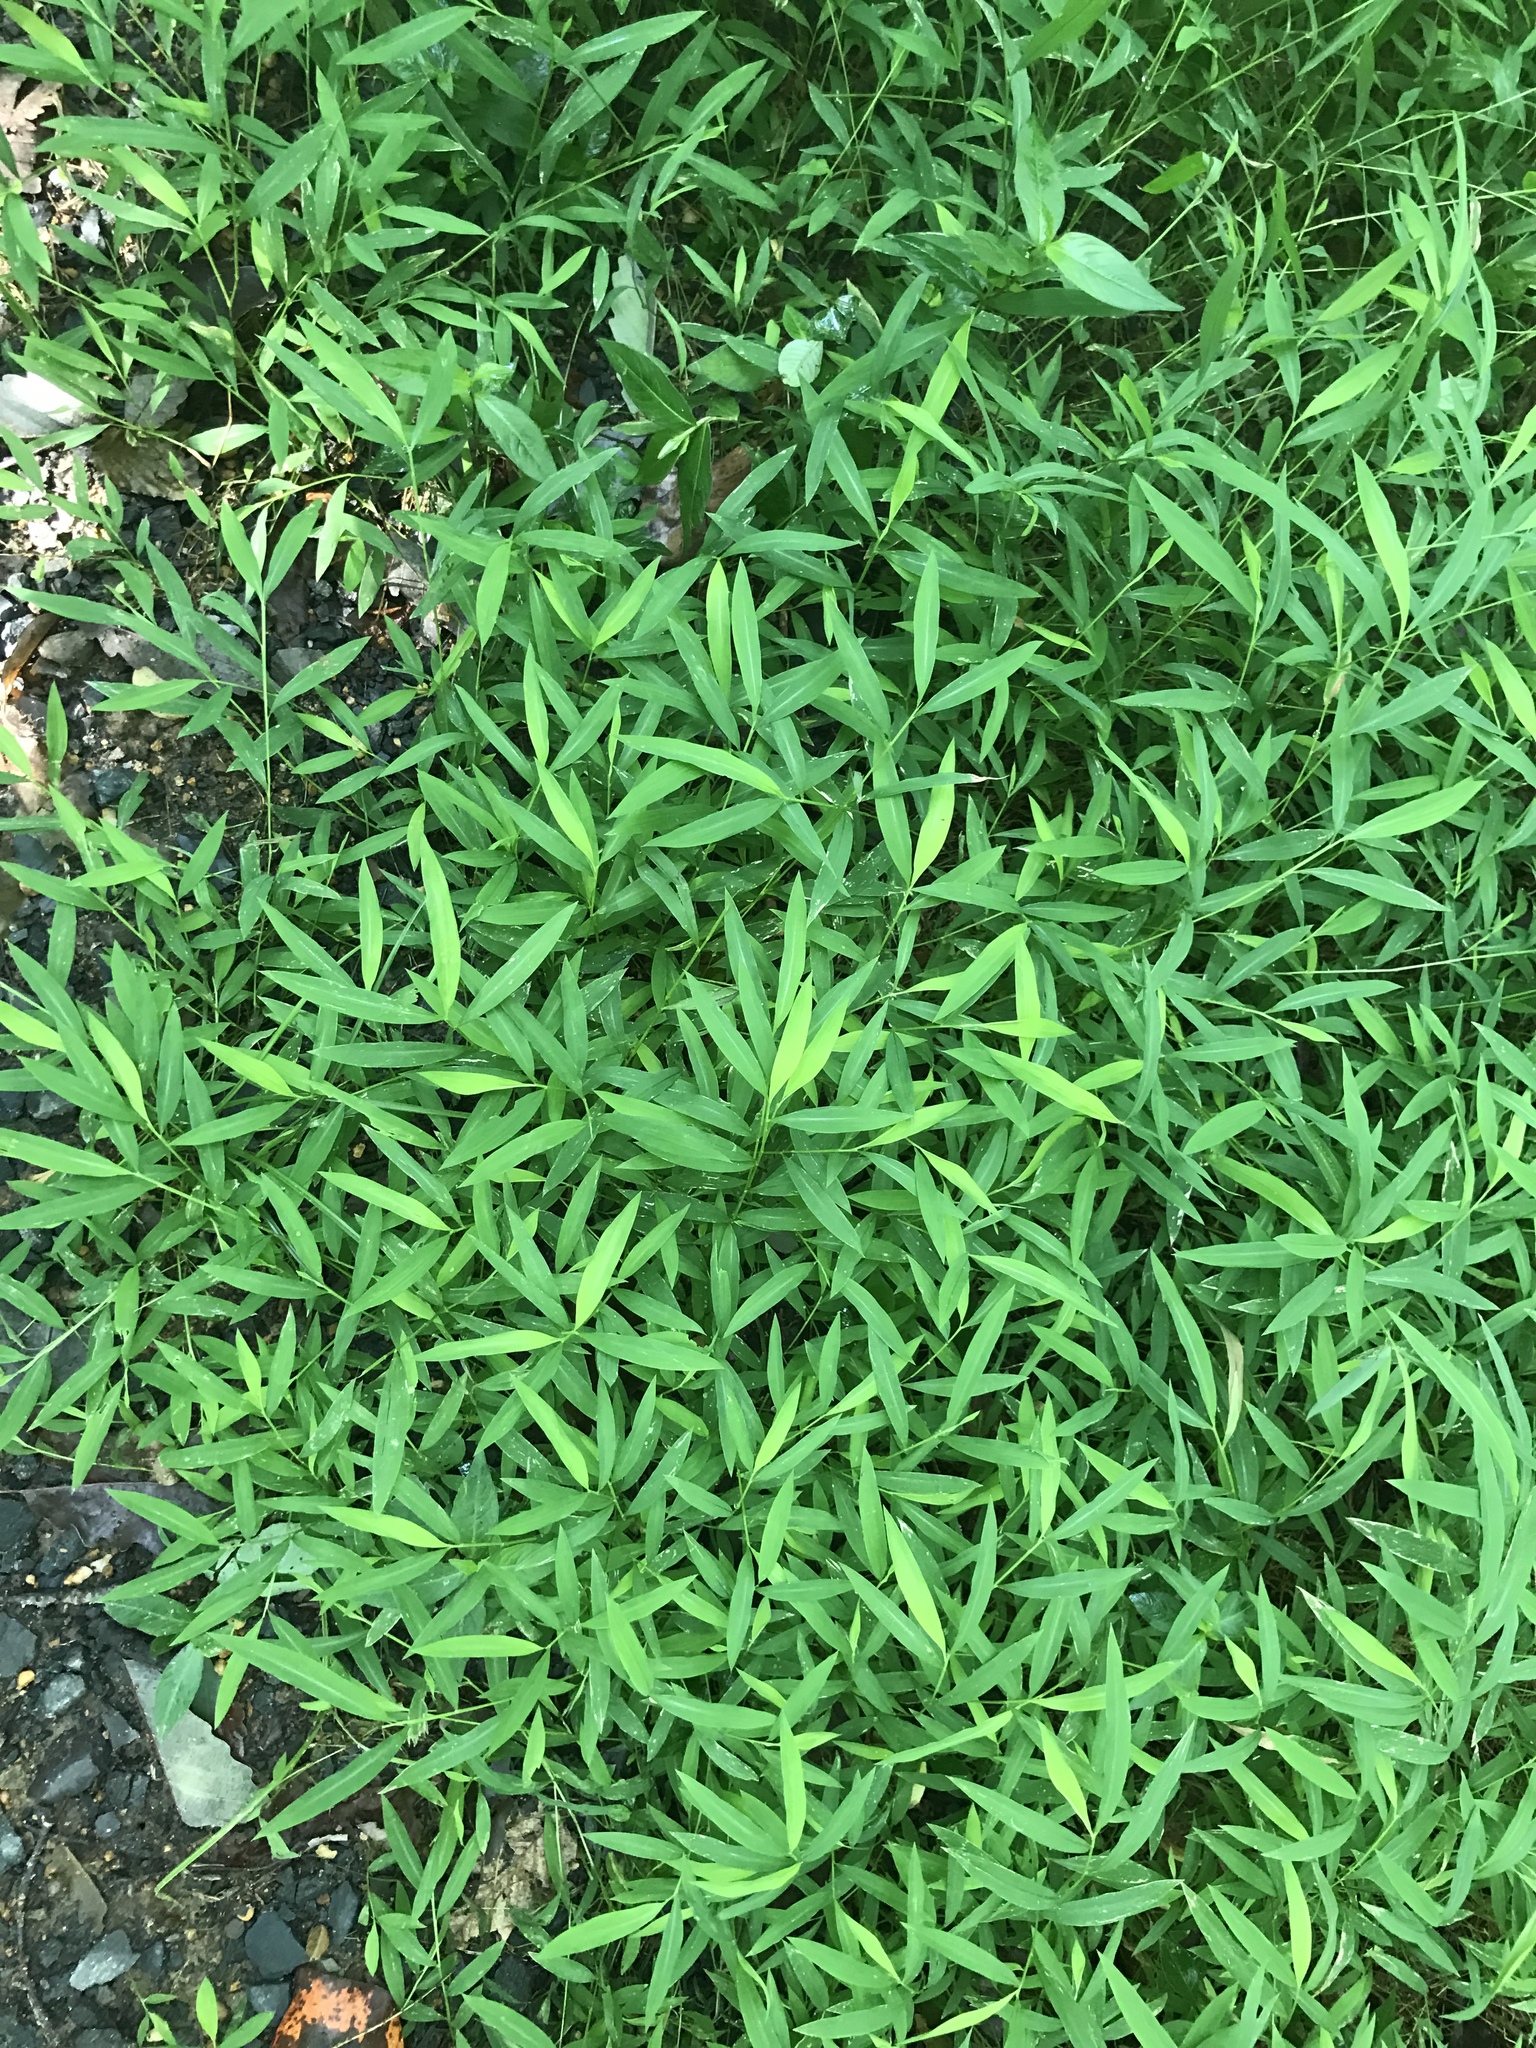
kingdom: Plantae
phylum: Tracheophyta
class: Liliopsida
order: Poales
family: Poaceae
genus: Microstegium
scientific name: Microstegium vimineum
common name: Japanese stiltgrass
